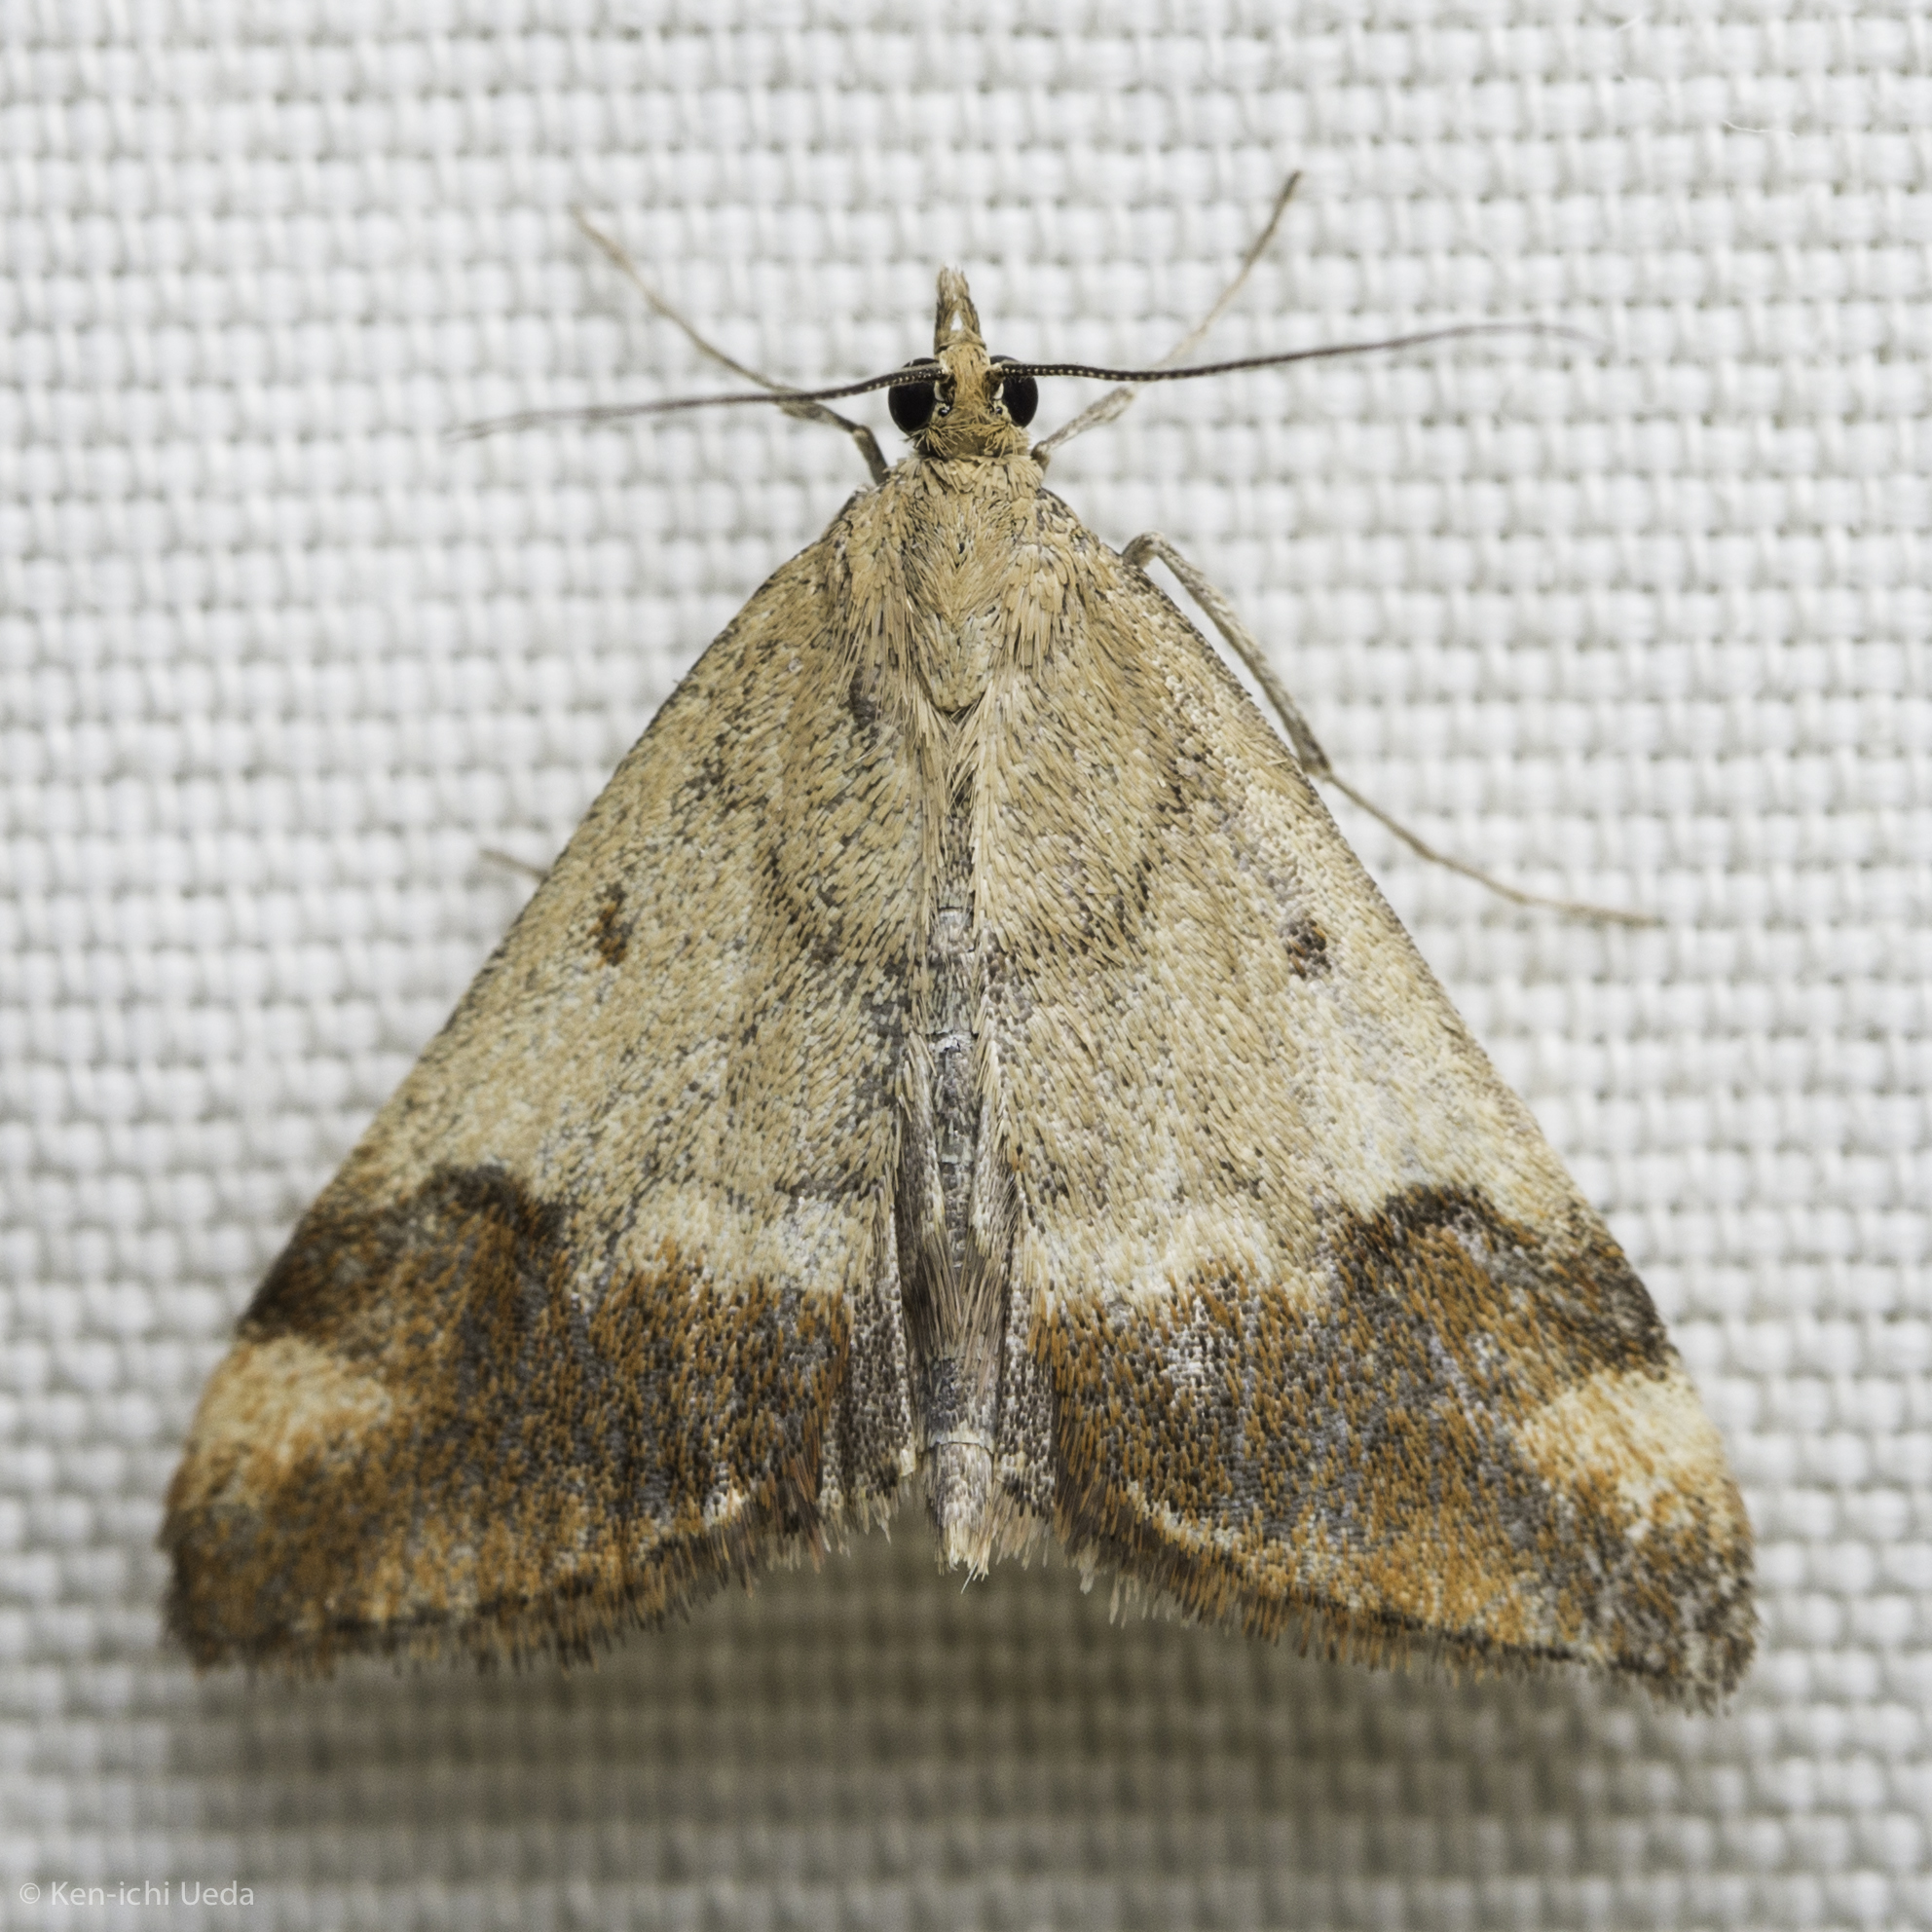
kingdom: Animalia
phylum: Arthropoda
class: Insecta
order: Lepidoptera
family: Crambidae
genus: Pyrausta
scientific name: Pyrausta semirubralis
